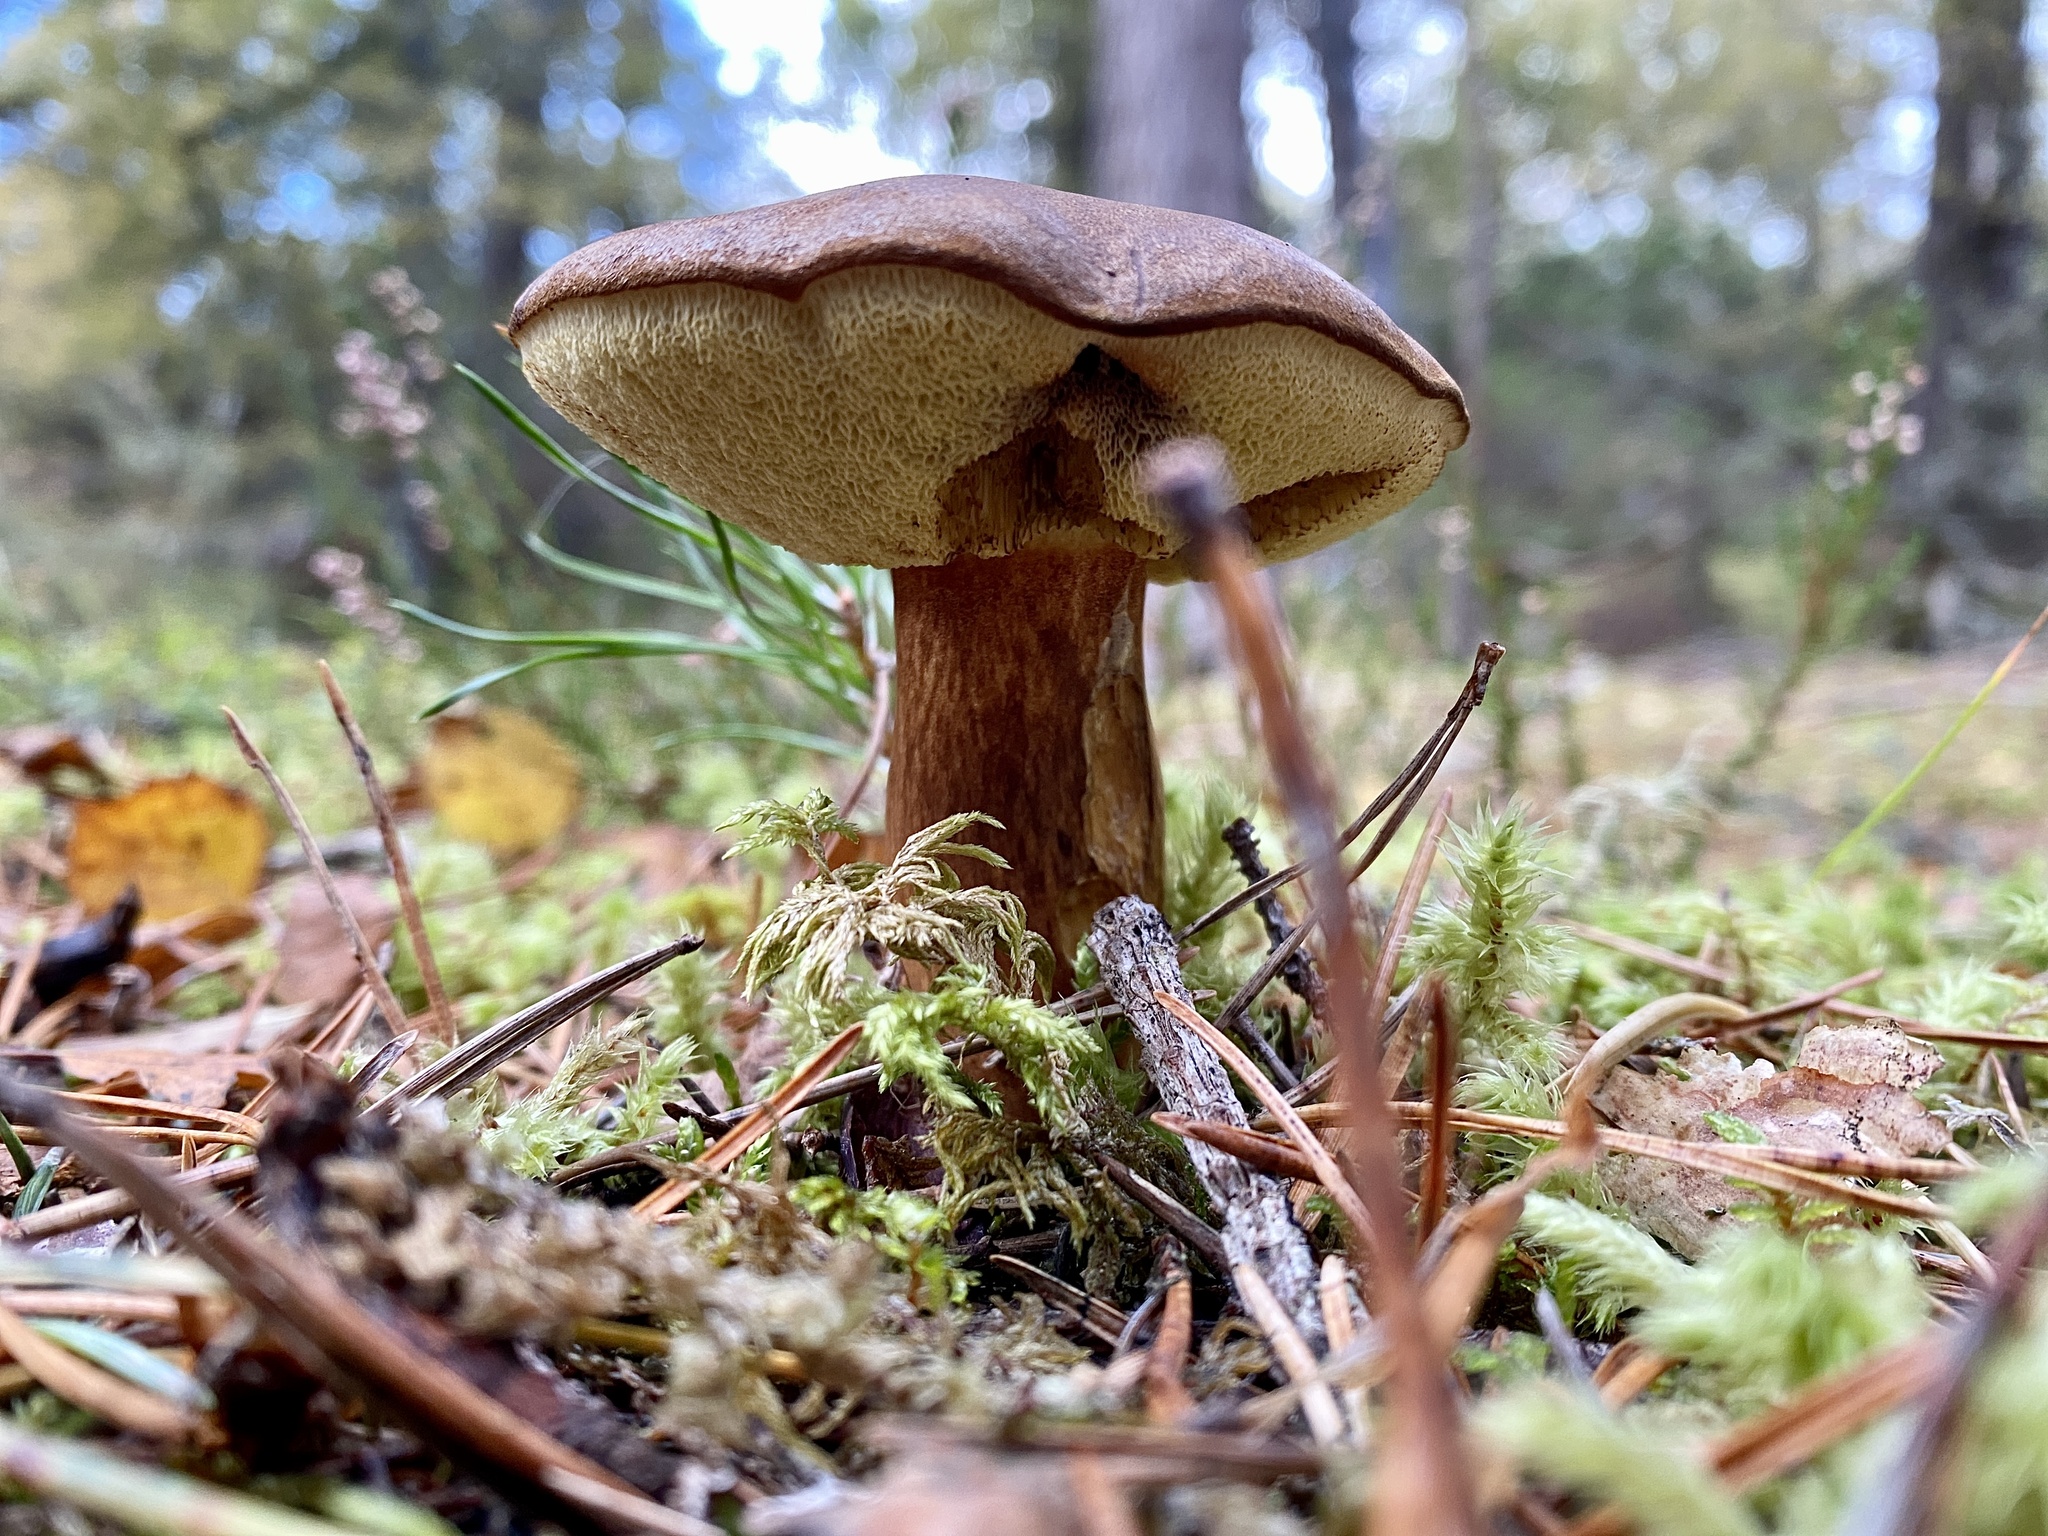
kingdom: Fungi
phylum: Basidiomycota
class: Agaricomycetes
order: Boletales
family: Boletaceae
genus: Imleria
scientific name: Imleria badia
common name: Bay bolete
